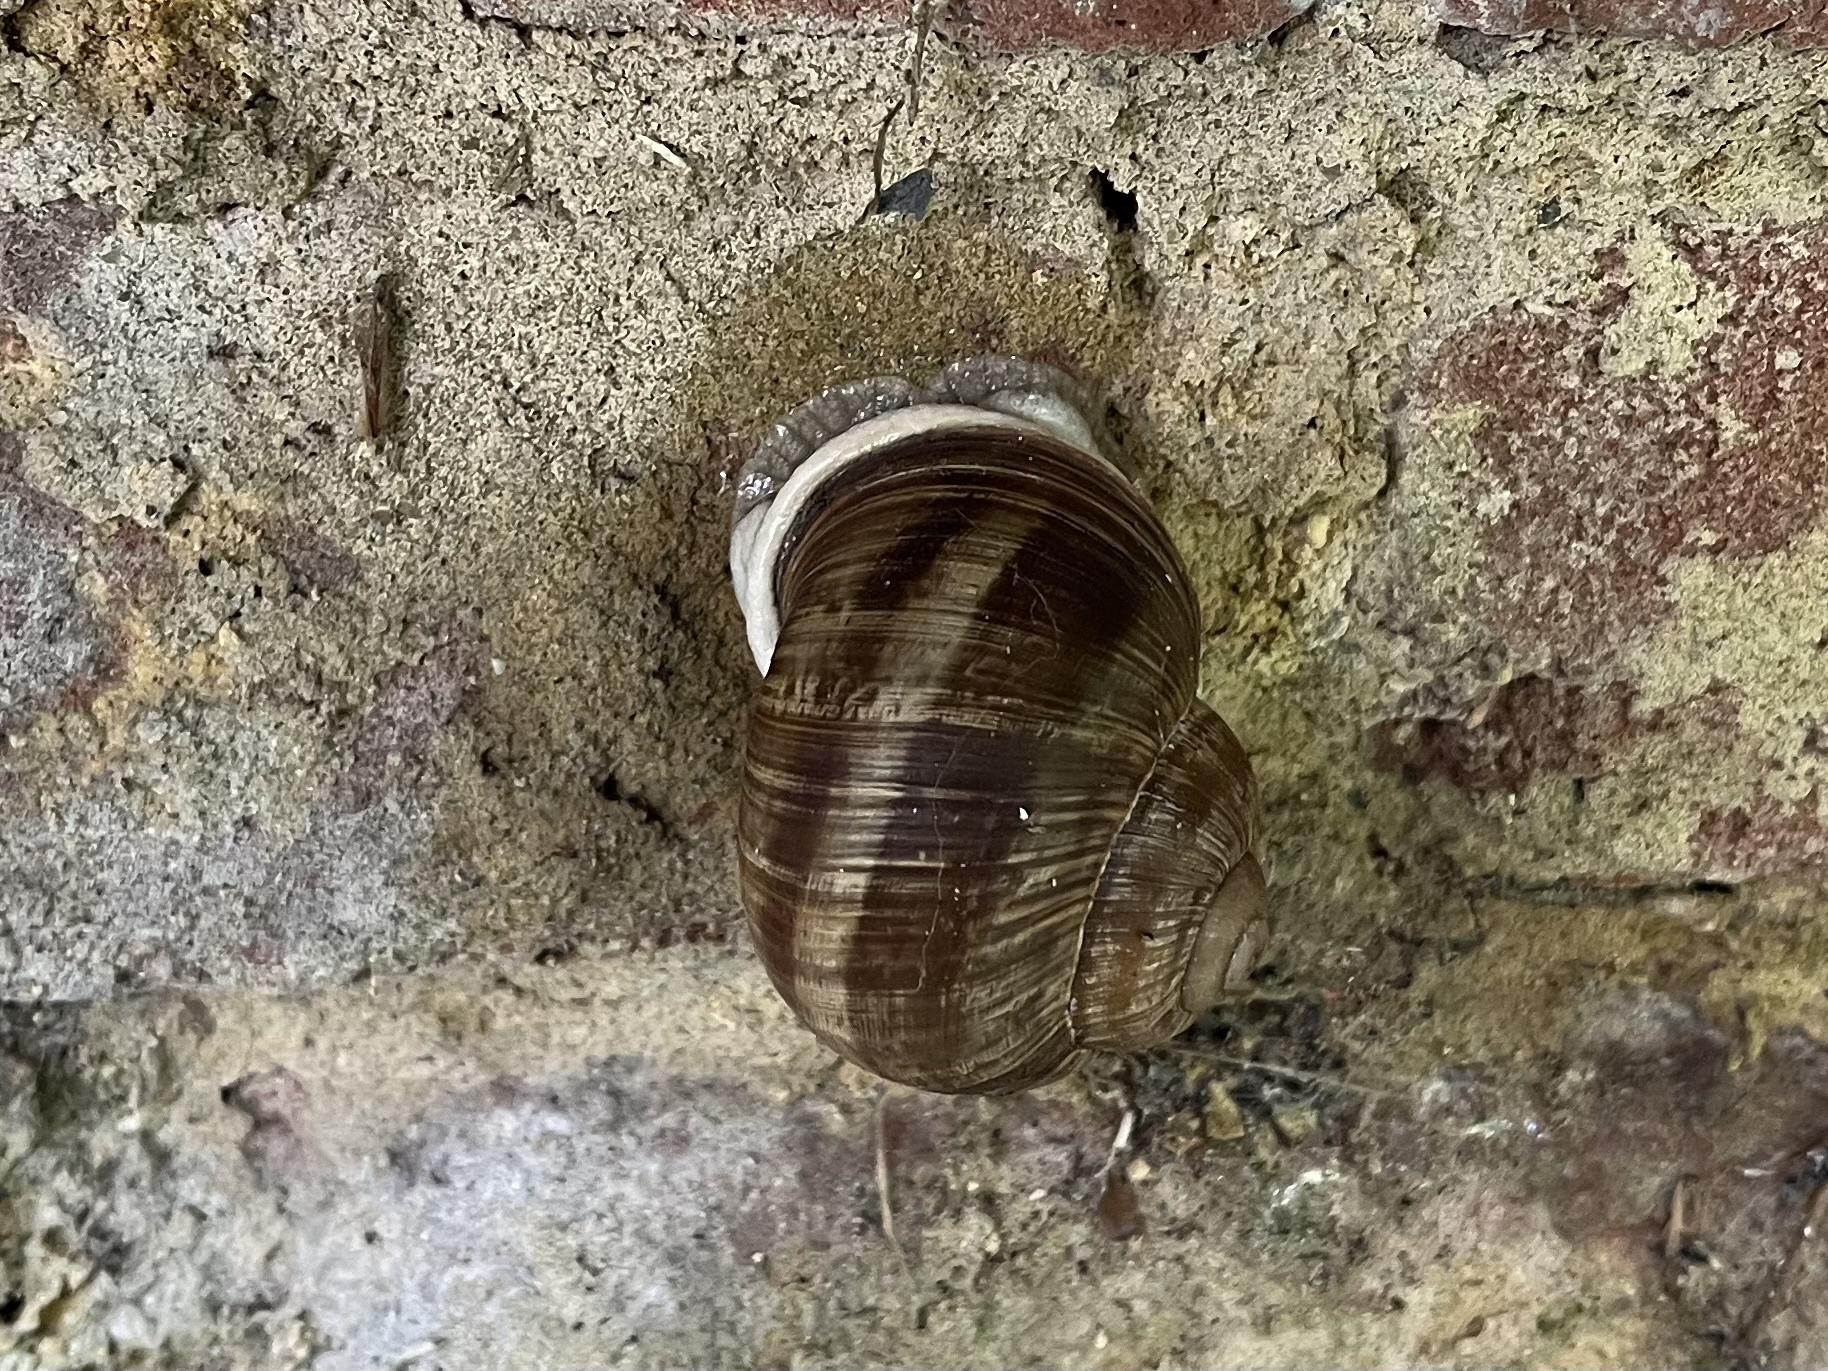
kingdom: Animalia
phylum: Mollusca
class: Gastropoda
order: Stylommatophora
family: Helicidae
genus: Helix
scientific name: Helix pomatia
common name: Roman snail
